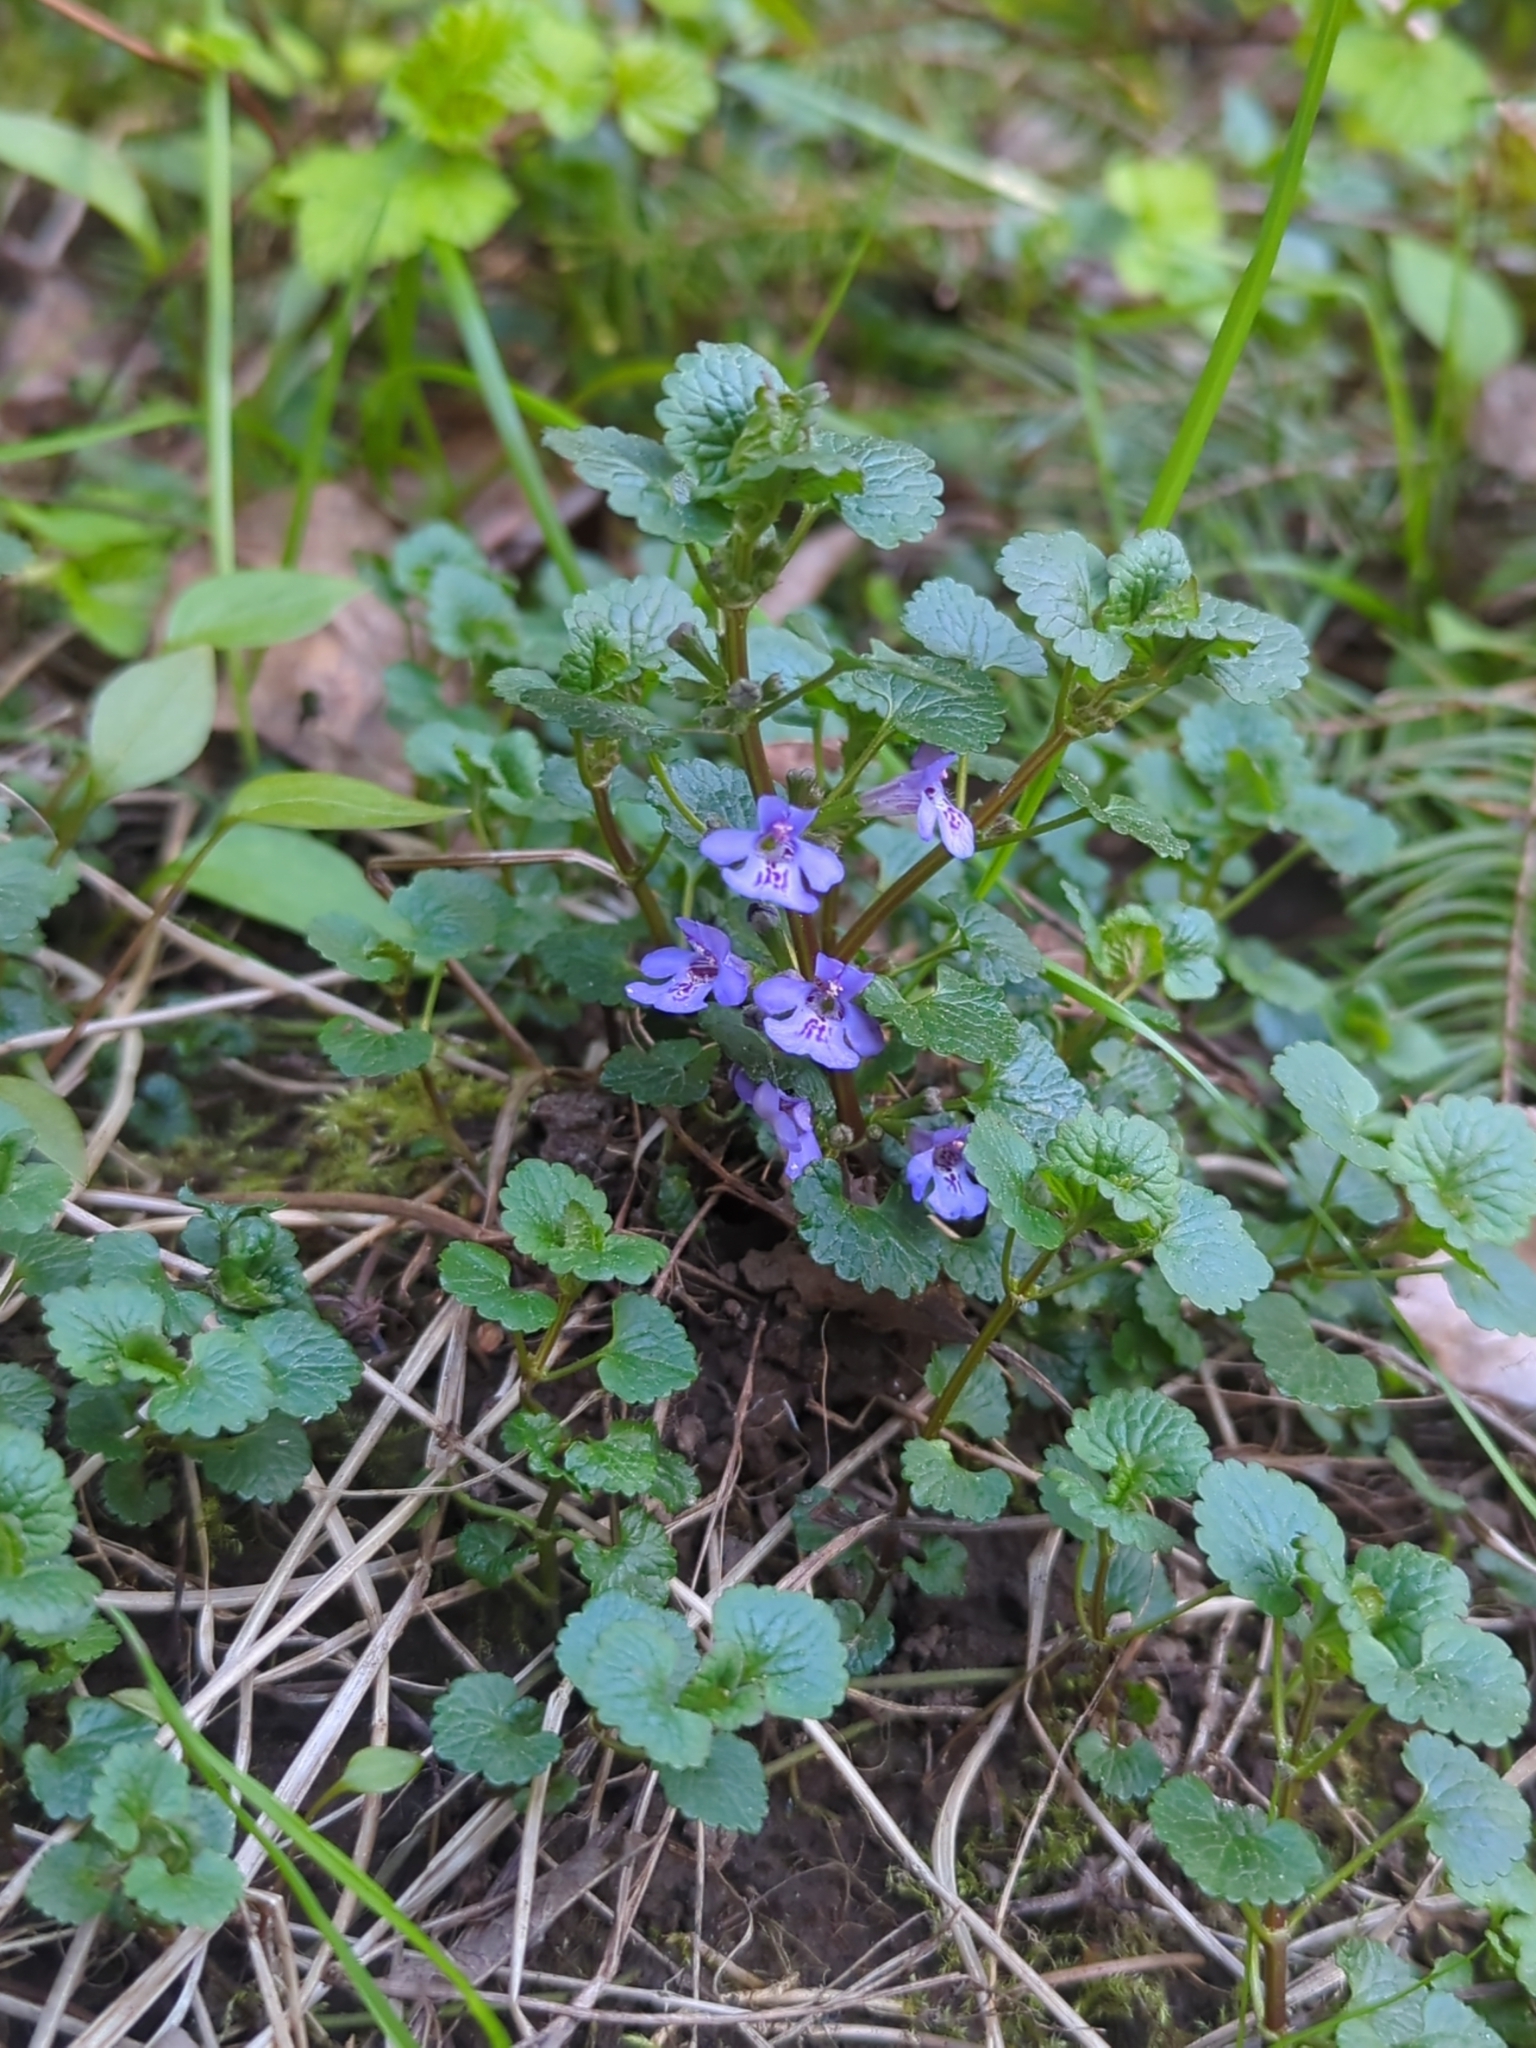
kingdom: Plantae
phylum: Tracheophyta
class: Magnoliopsida
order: Lamiales
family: Lamiaceae
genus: Glechoma
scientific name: Glechoma hederacea
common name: Ground ivy
